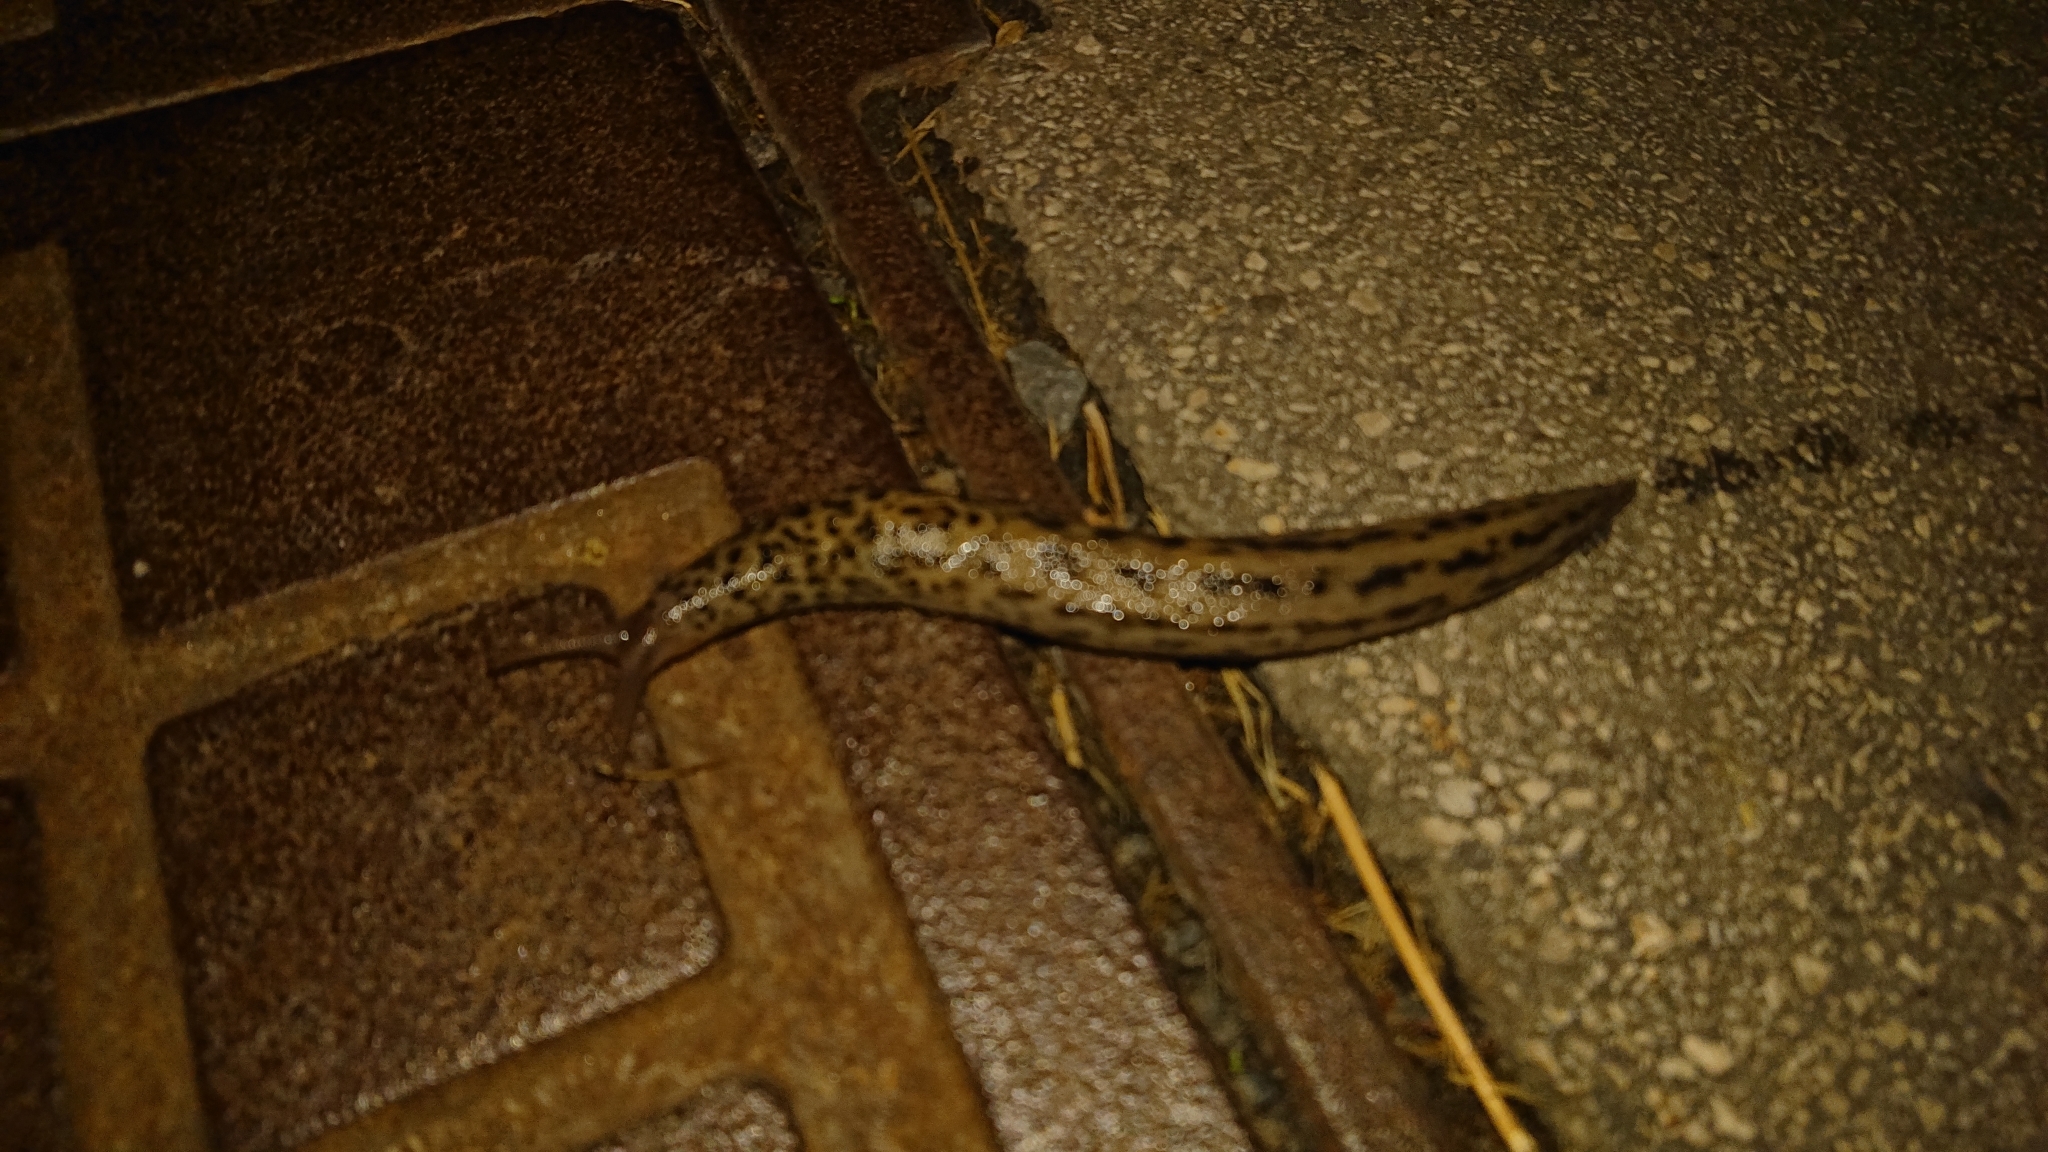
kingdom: Animalia
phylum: Mollusca
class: Gastropoda
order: Stylommatophora
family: Limacidae
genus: Limax
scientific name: Limax maximus
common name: Great grey slug
